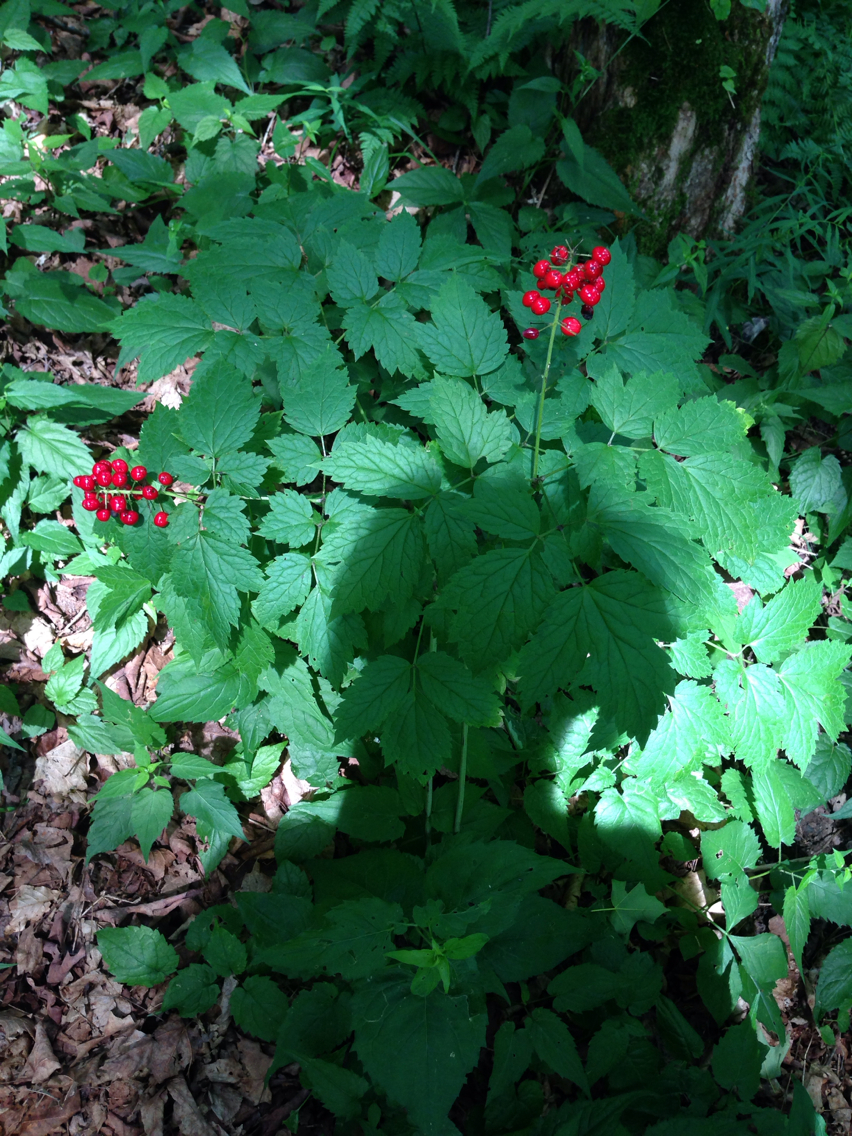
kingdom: Plantae
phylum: Tracheophyta
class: Magnoliopsida
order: Ranunculales
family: Ranunculaceae
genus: Actaea
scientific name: Actaea rubra
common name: Red baneberry
